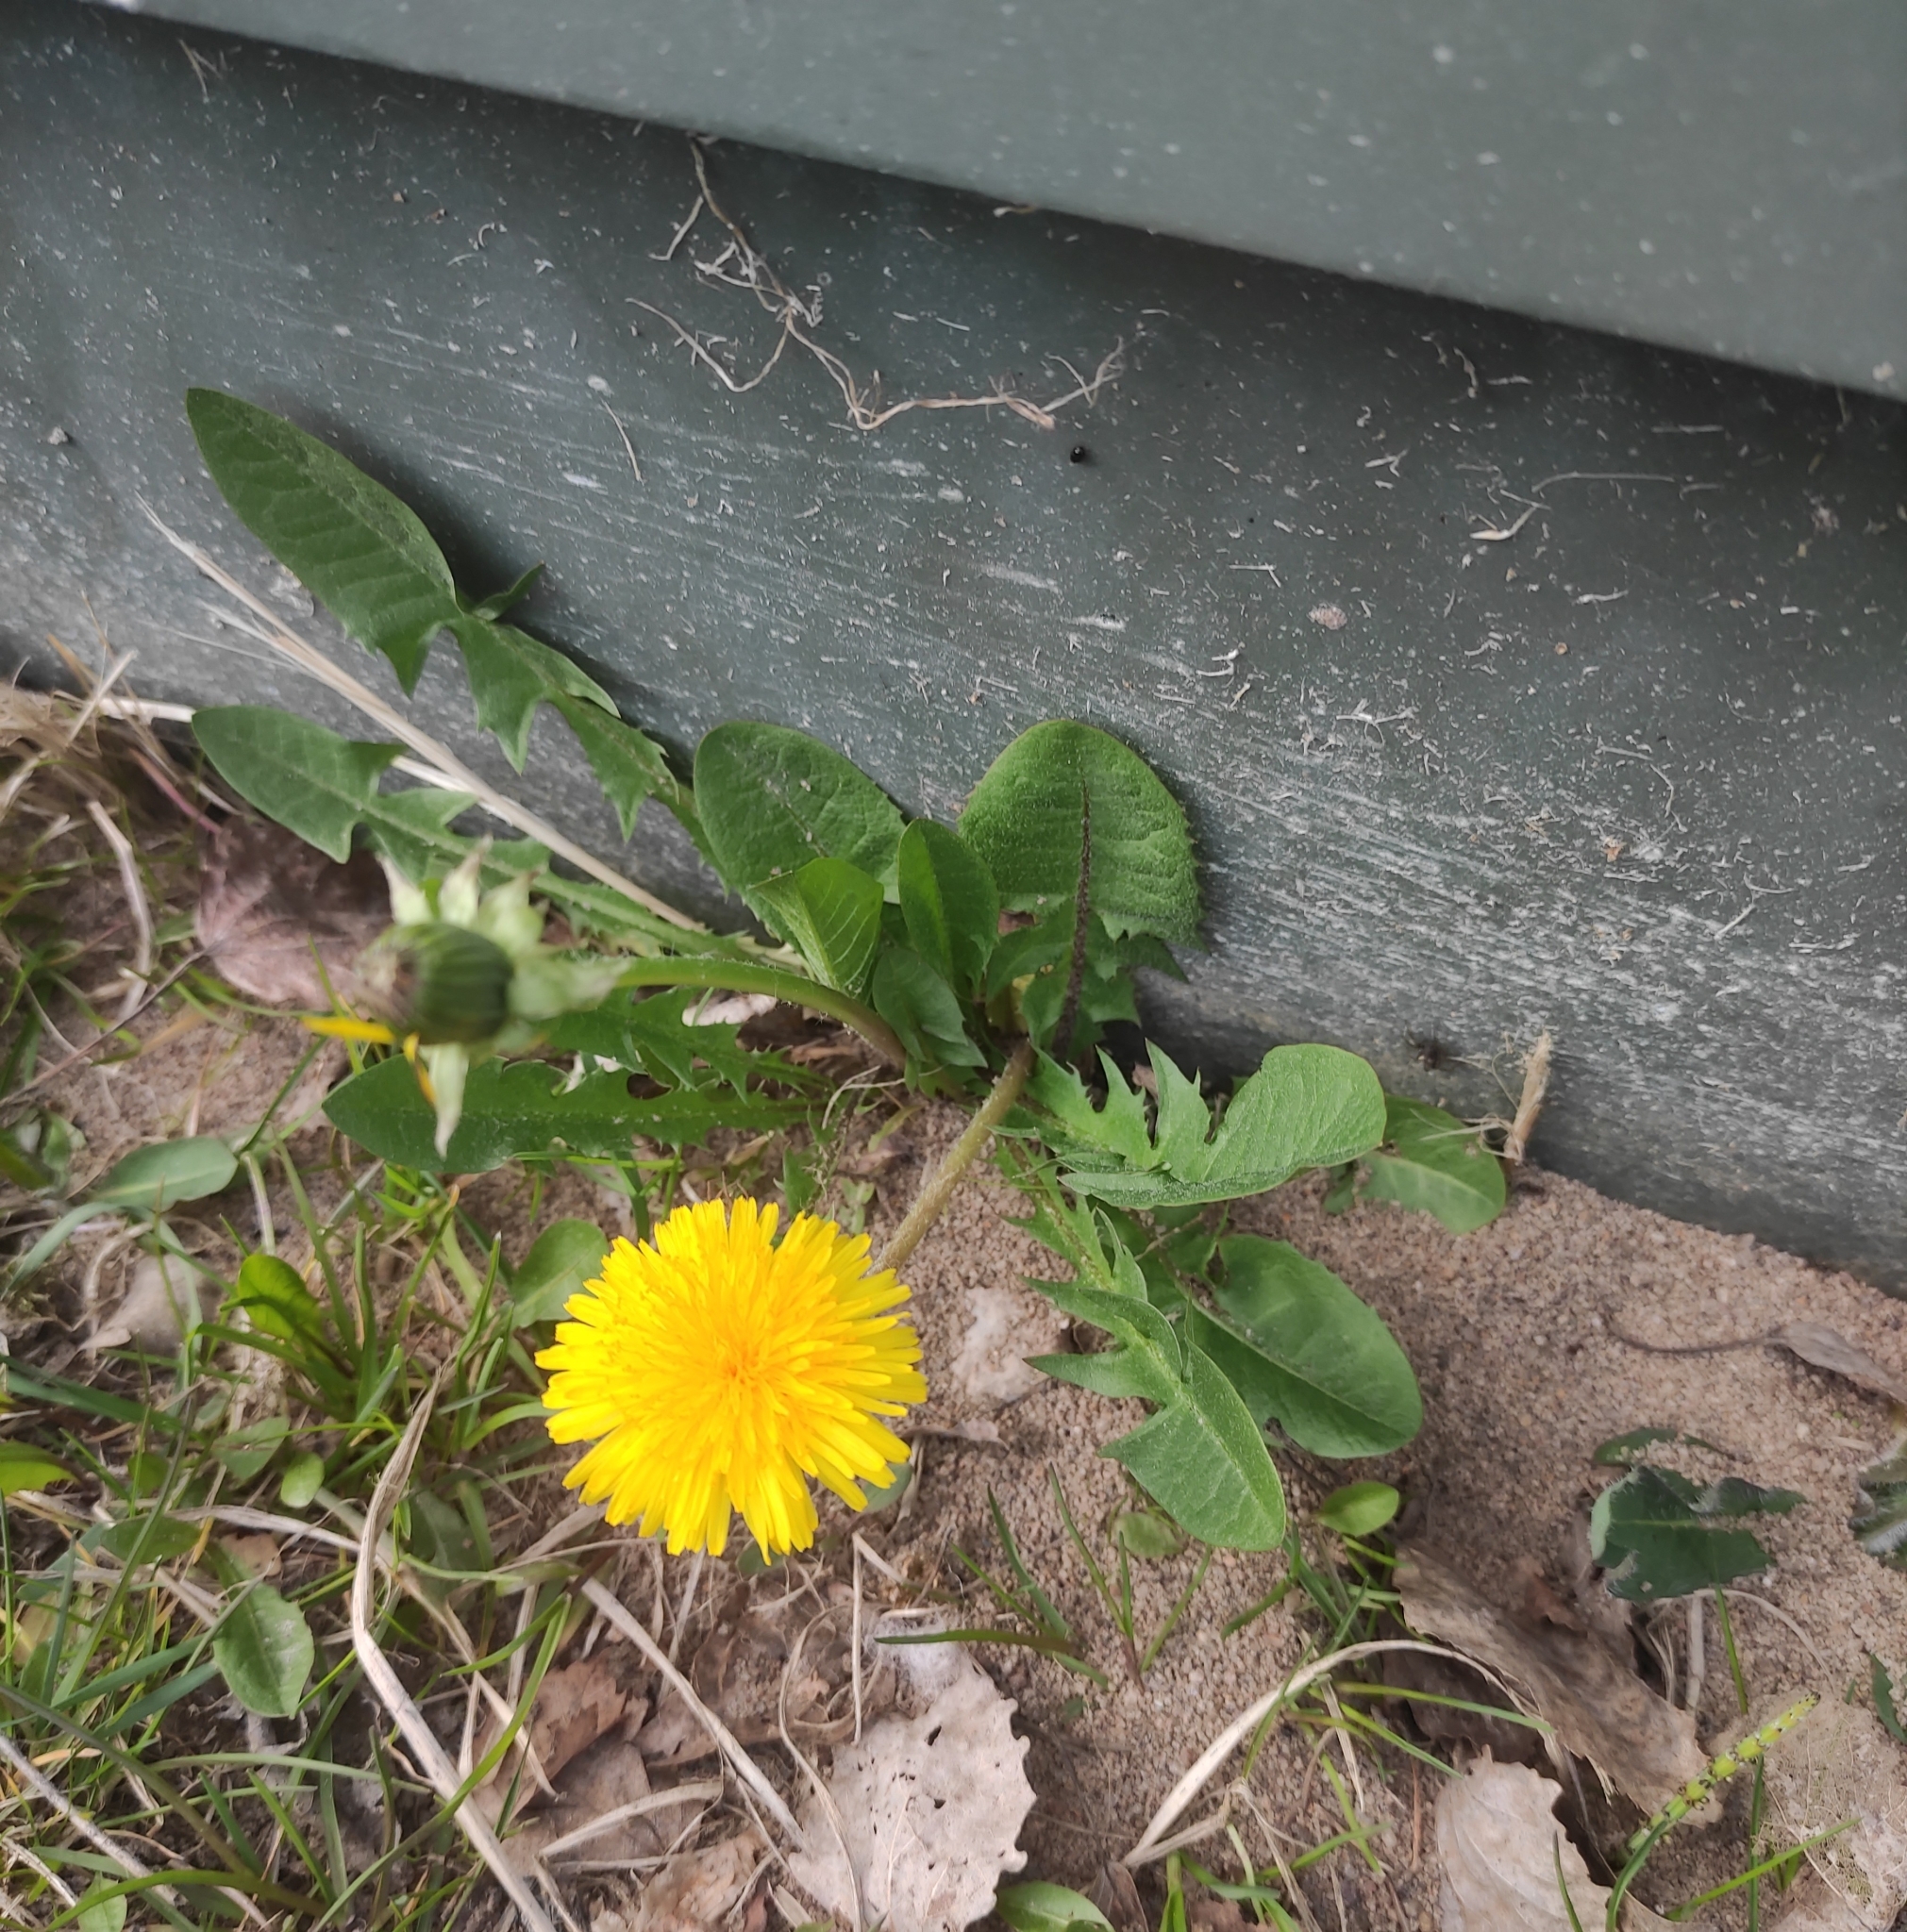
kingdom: Plantae
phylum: Tracheophyta
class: Magnoliopsida
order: Asterales
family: Asteraceae
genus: Taraxacum
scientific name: Taraxacum officinale
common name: Common dandelion
